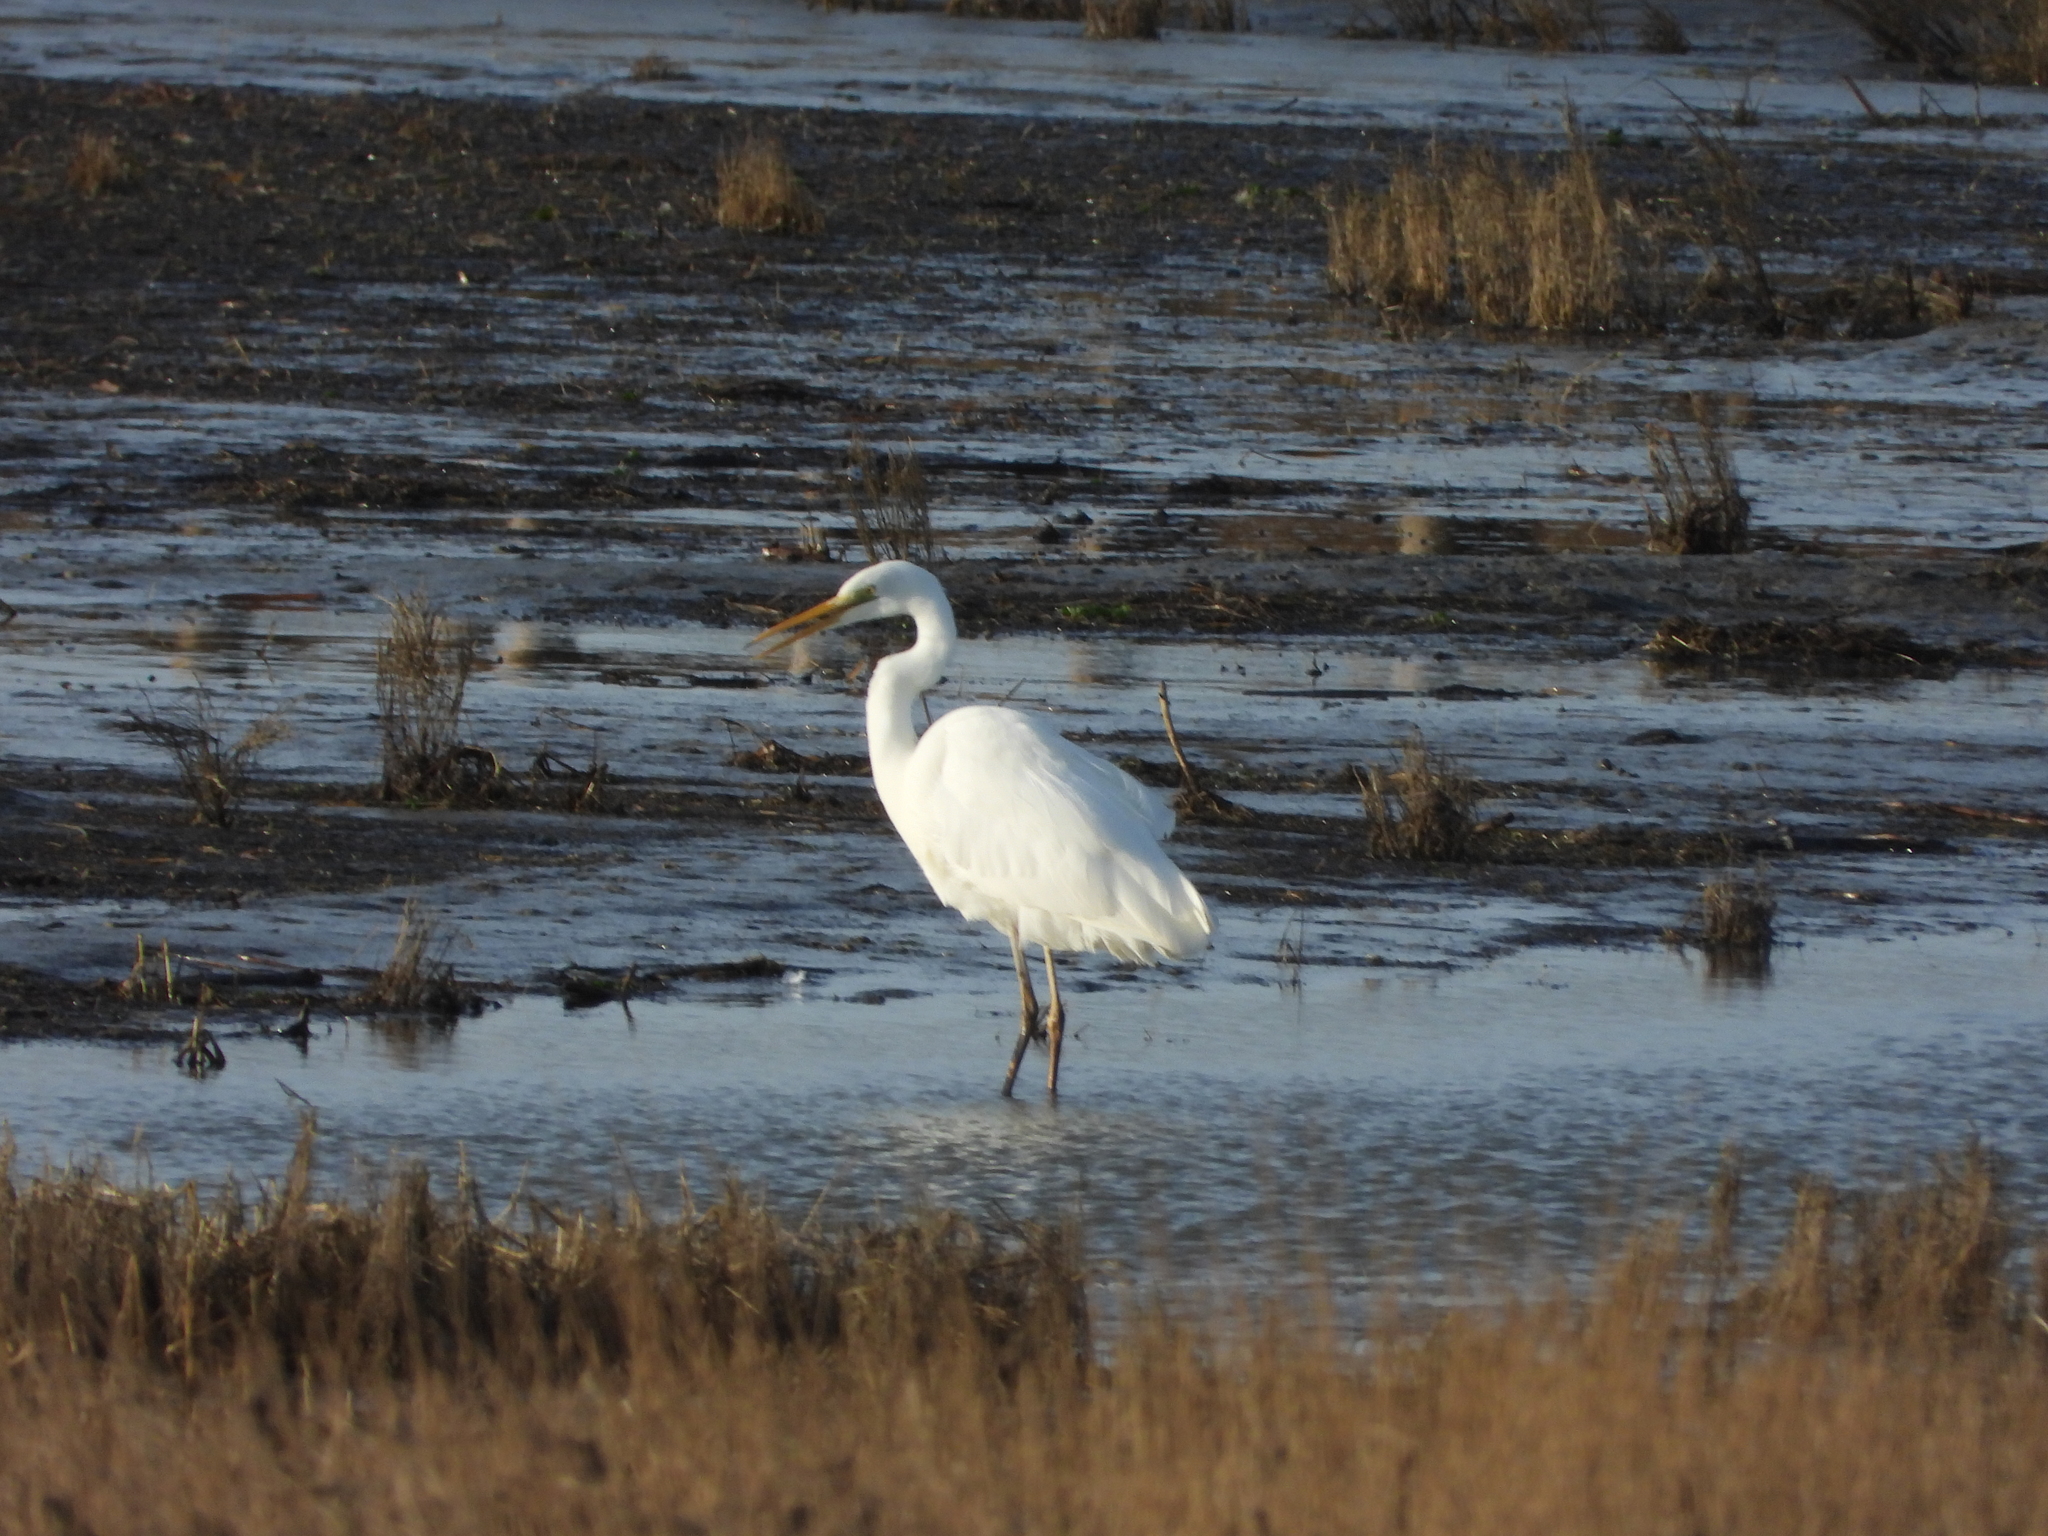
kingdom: Animalia
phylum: Chordata
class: Aves
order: Pelecaniformes
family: Ardeidae
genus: Ardea
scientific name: Ardea alba
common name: Great egret
